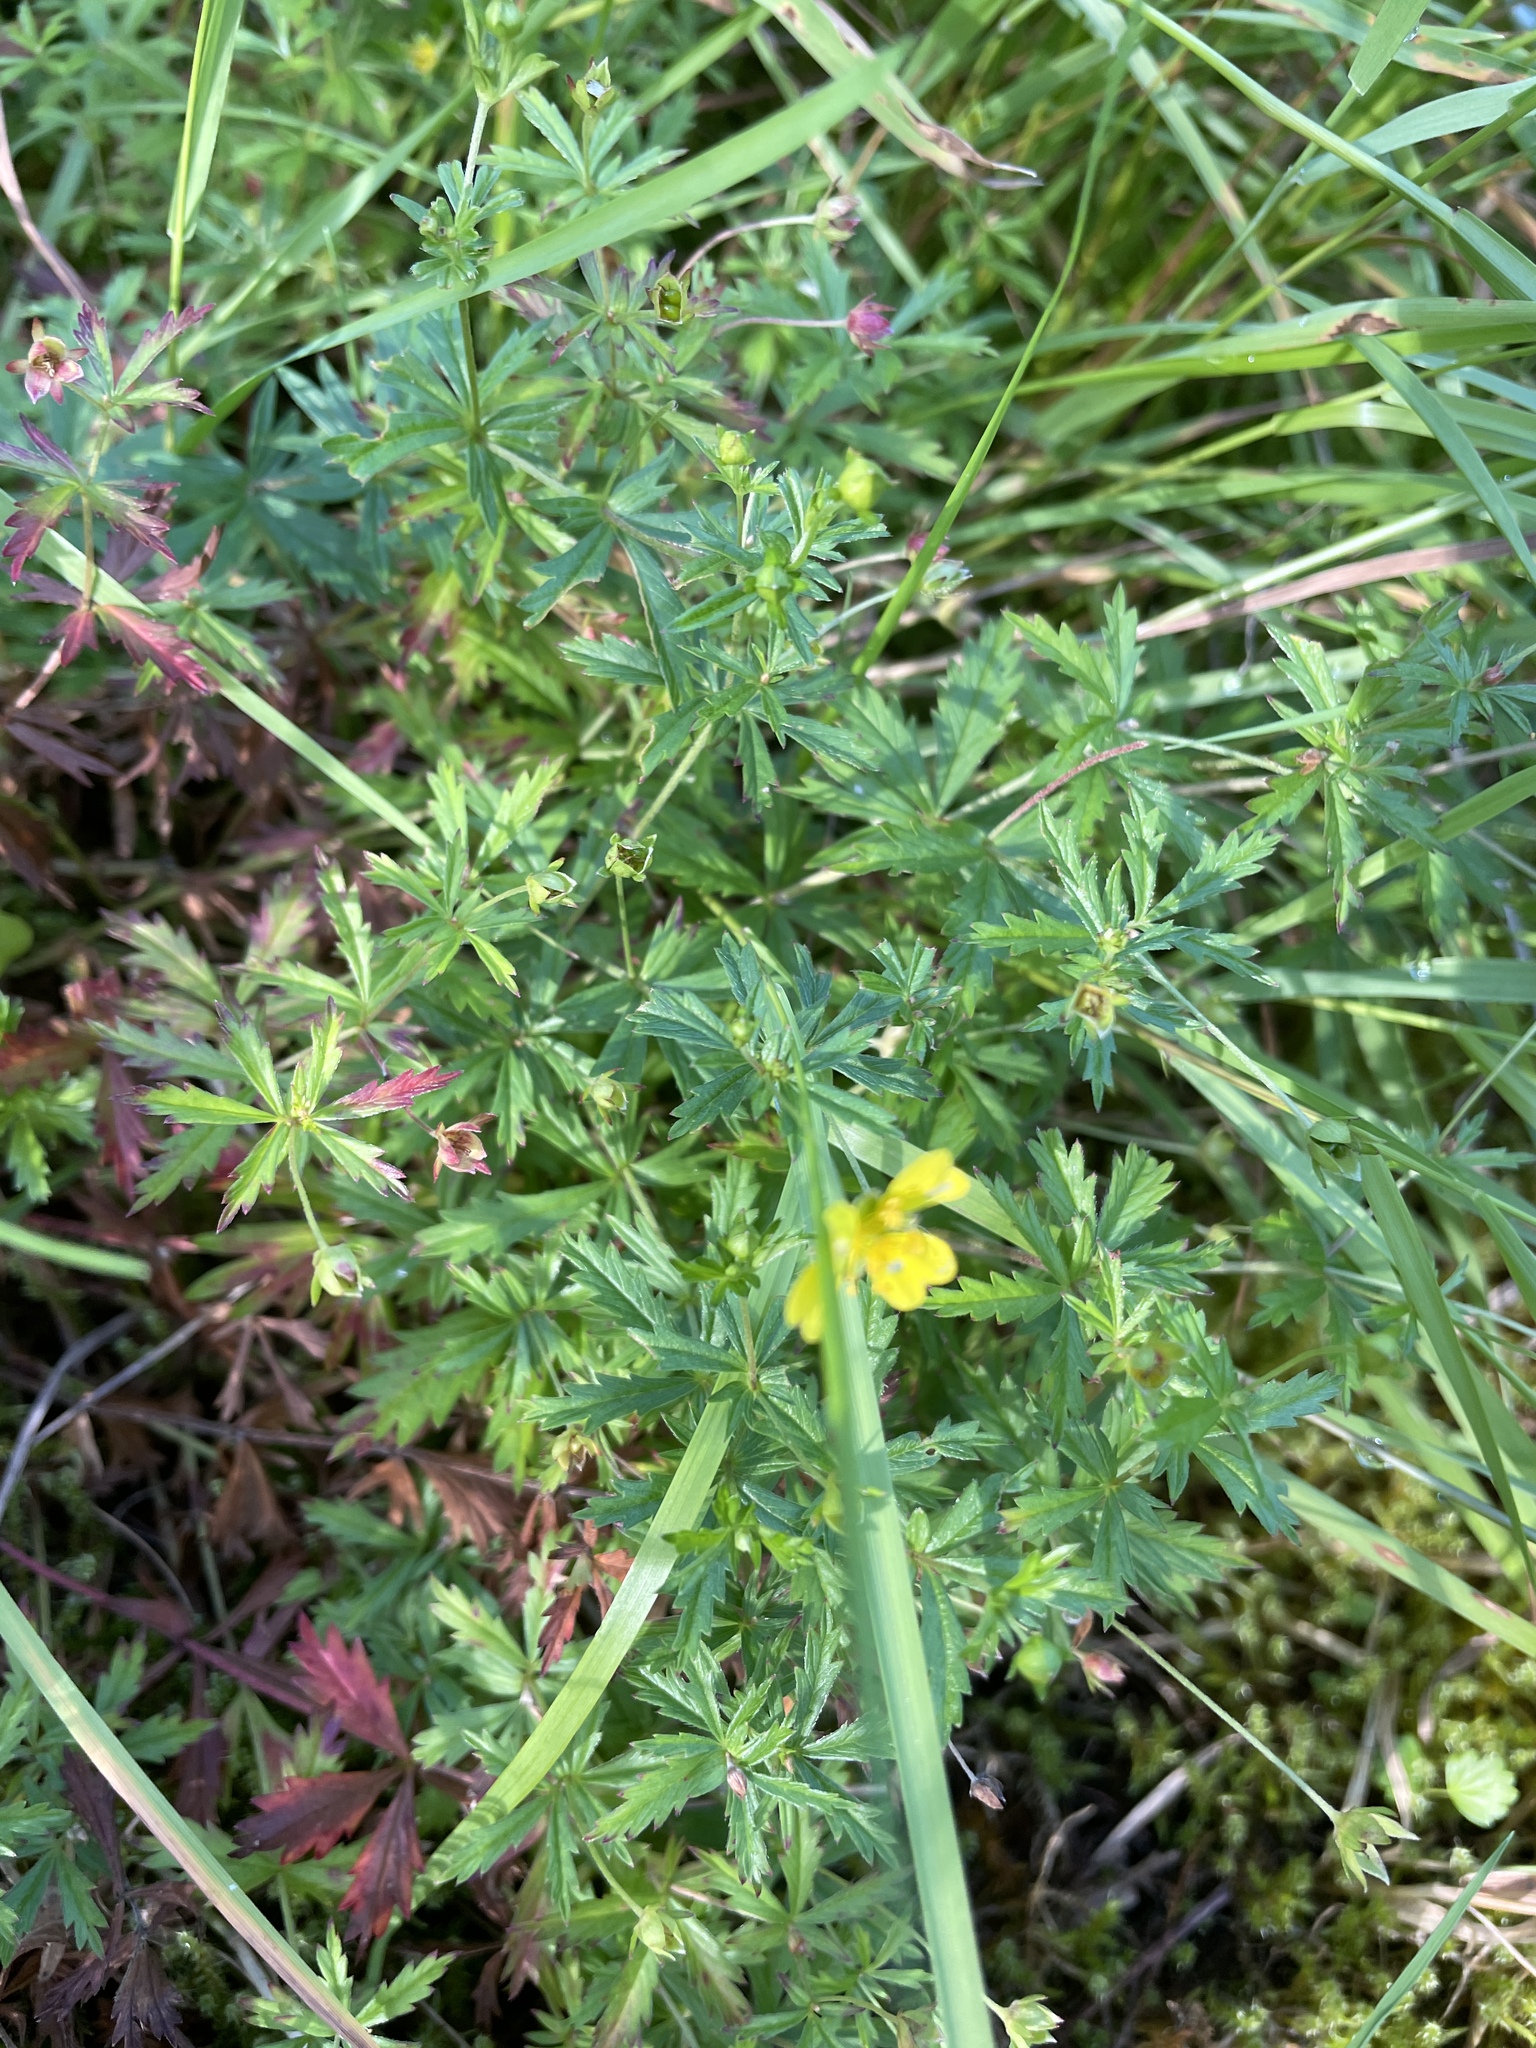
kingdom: Plantae
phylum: Tracheophyta
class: Magnoliopsida
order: Rosales
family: Rosaceae
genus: Potentilla
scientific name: Potentilla erecta
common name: Tormentil
